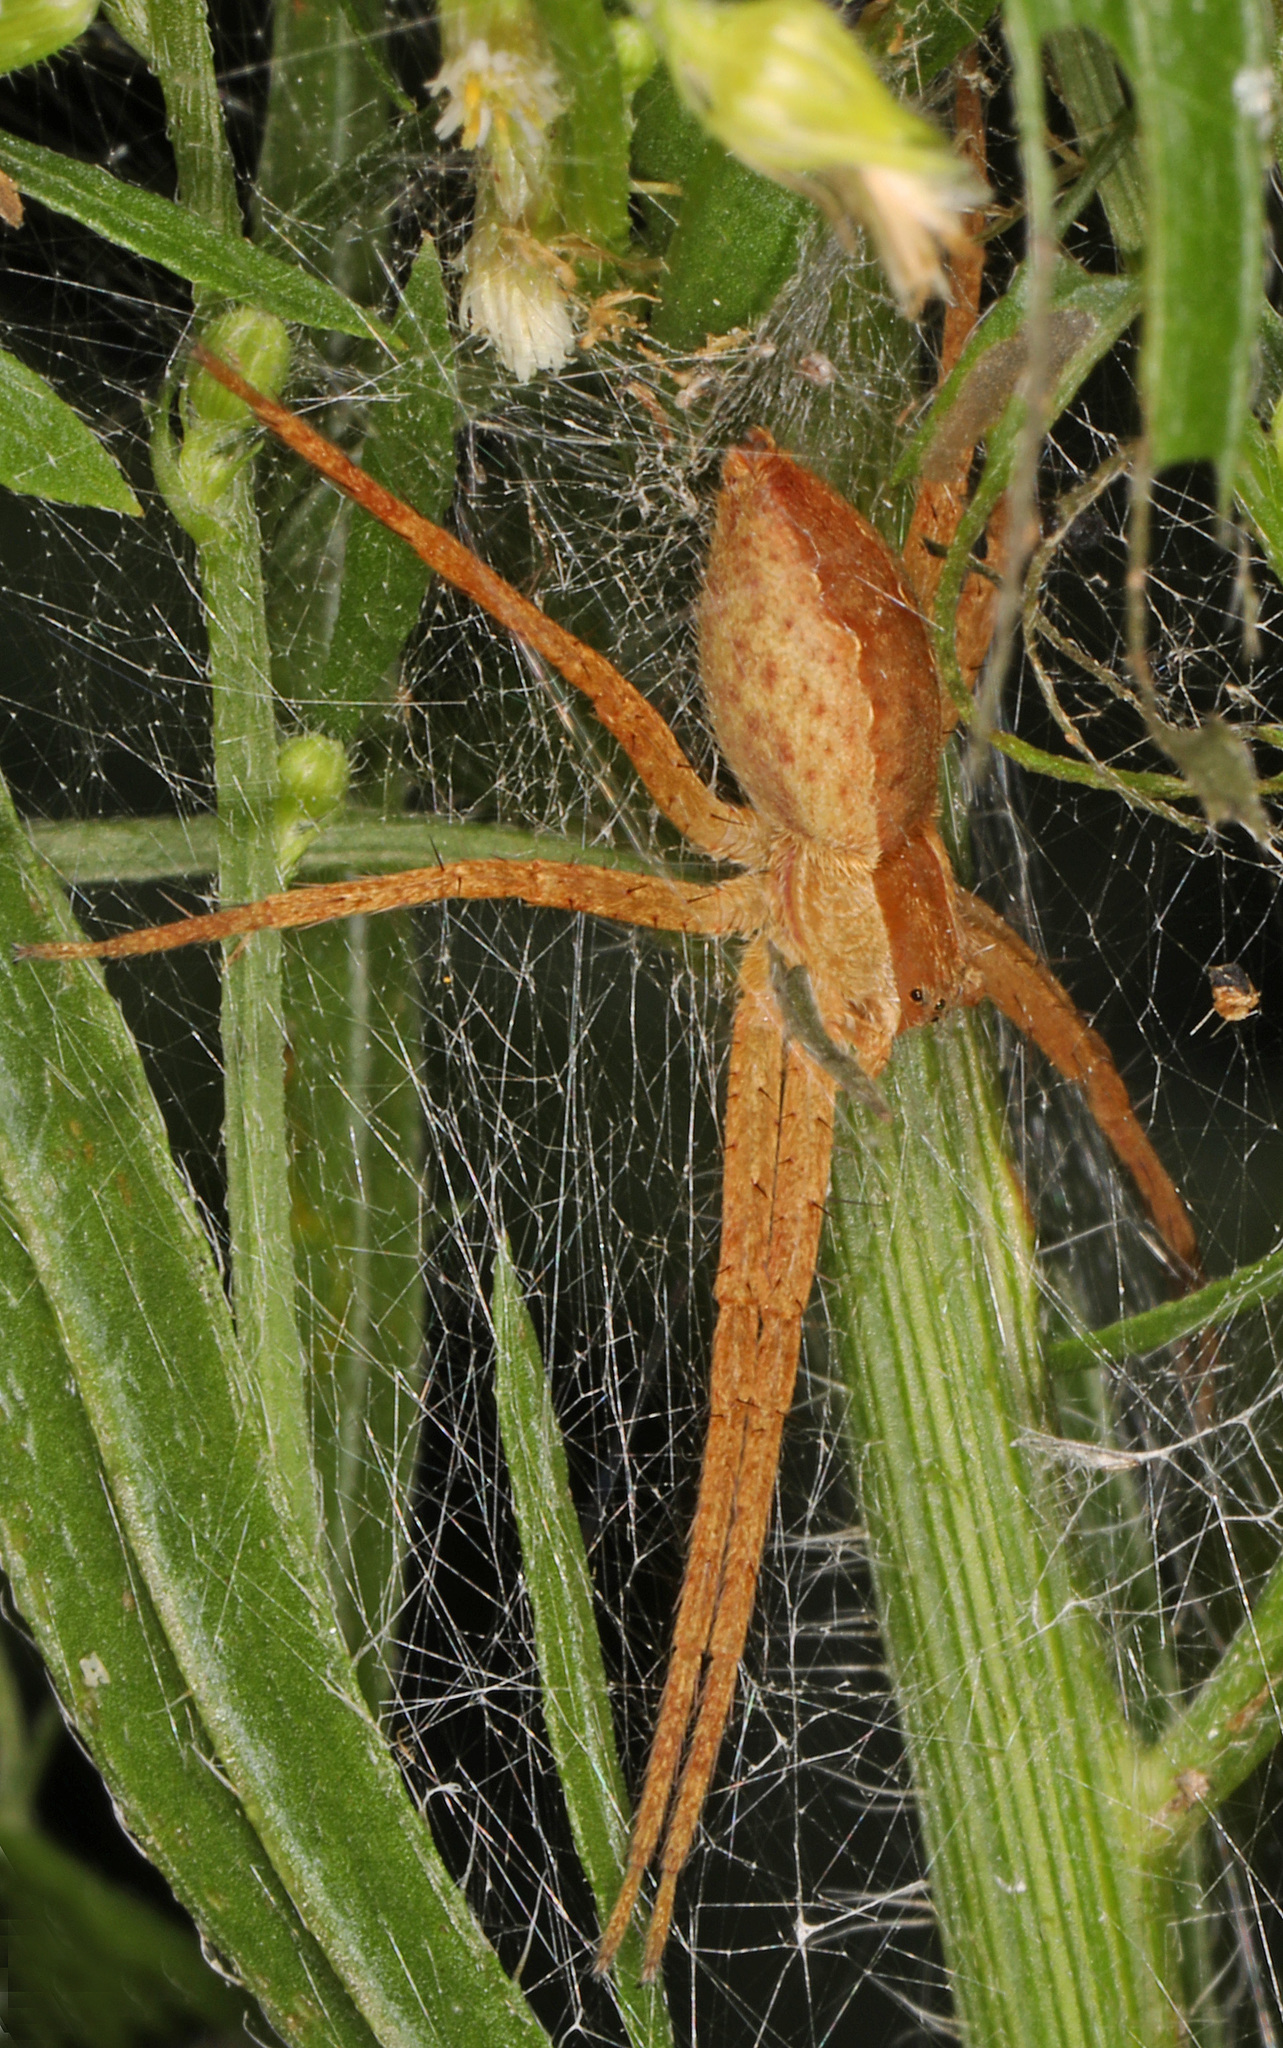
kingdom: Animalia
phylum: Arthropoda
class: Arachnida
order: Araneae
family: Pisauridae
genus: Pisaurina
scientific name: Pisaurina mira
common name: American nursery web spider
